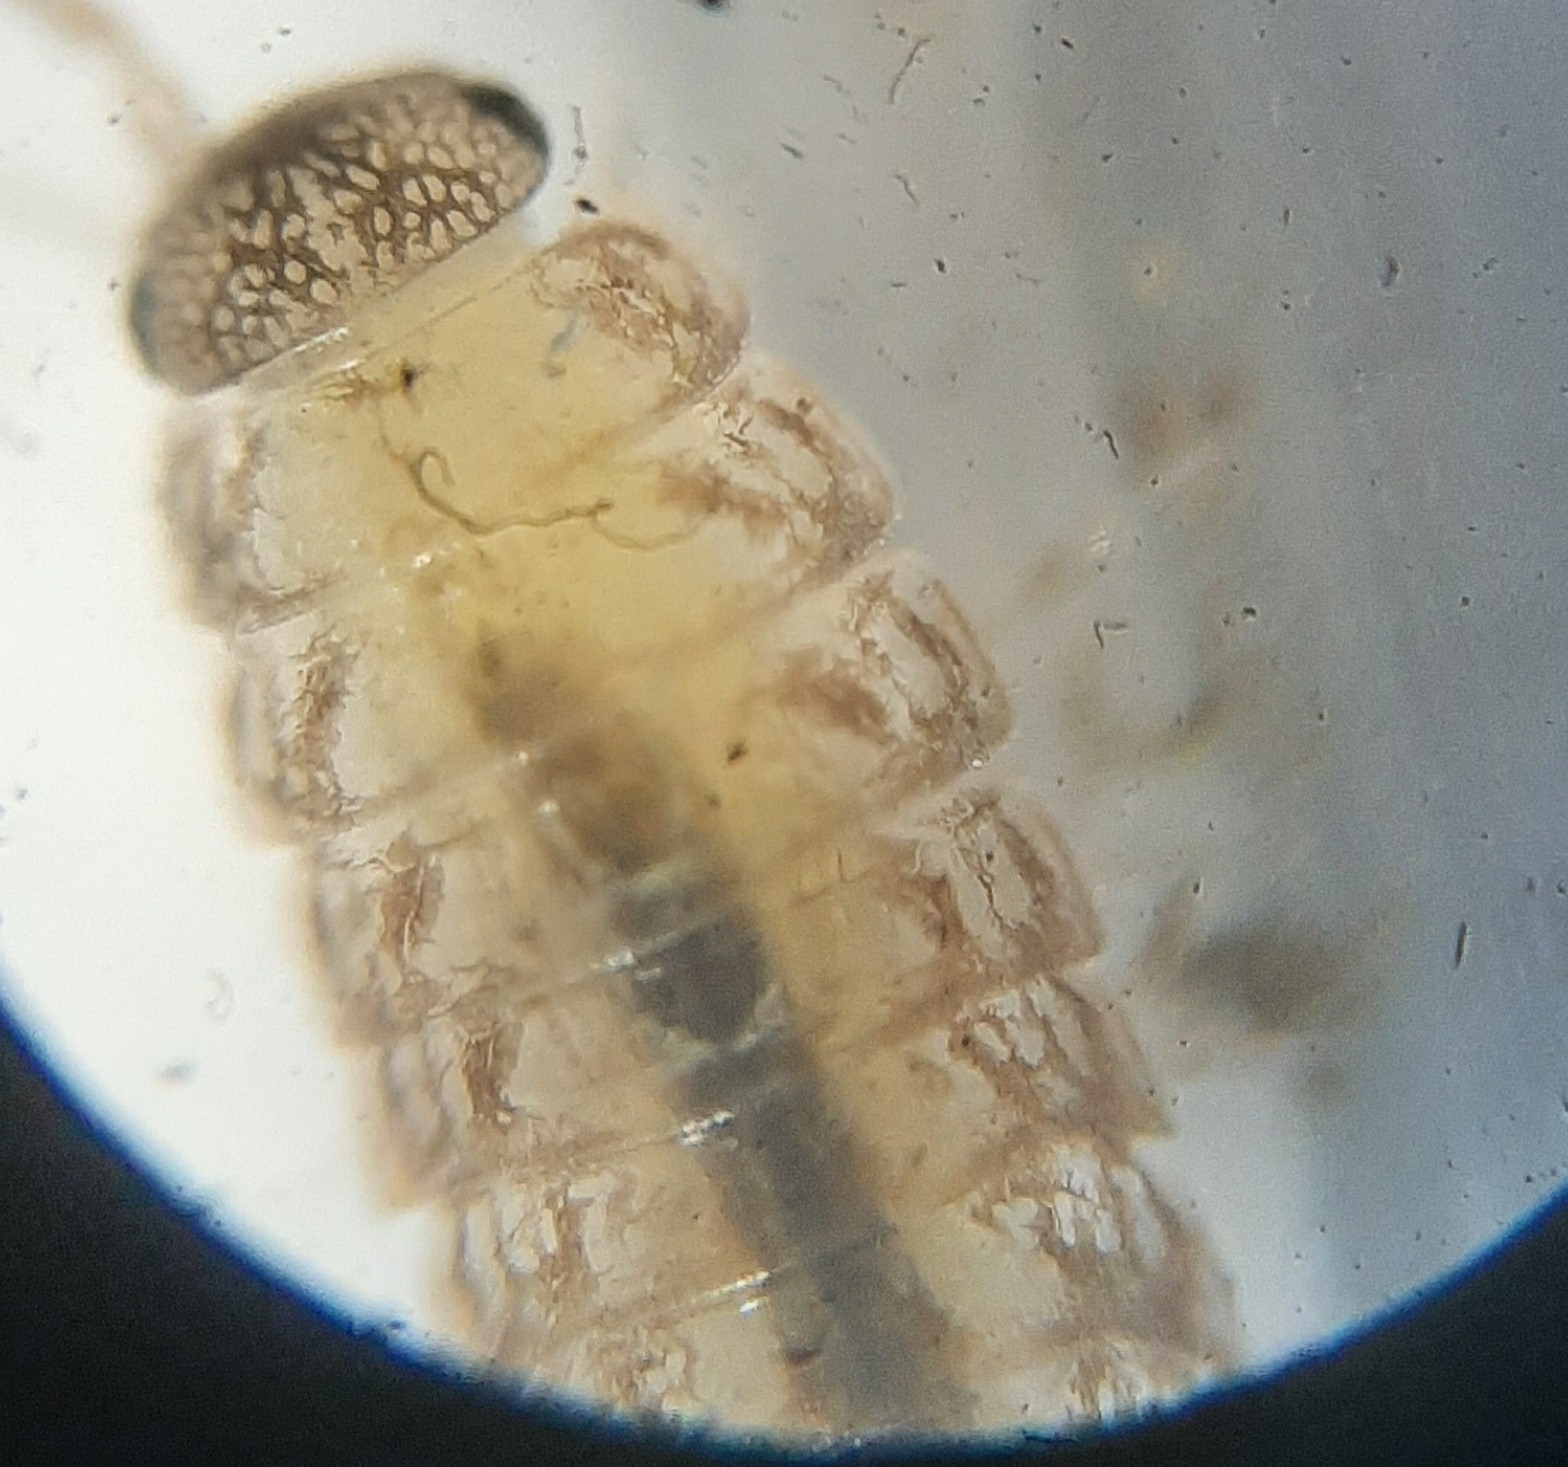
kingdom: Animalia
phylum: Arthropoda
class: Malacostraca
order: Isopoda
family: Philosciidae
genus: Philoscia
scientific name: Philoscia muscorum
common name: Common striped woodlouse
